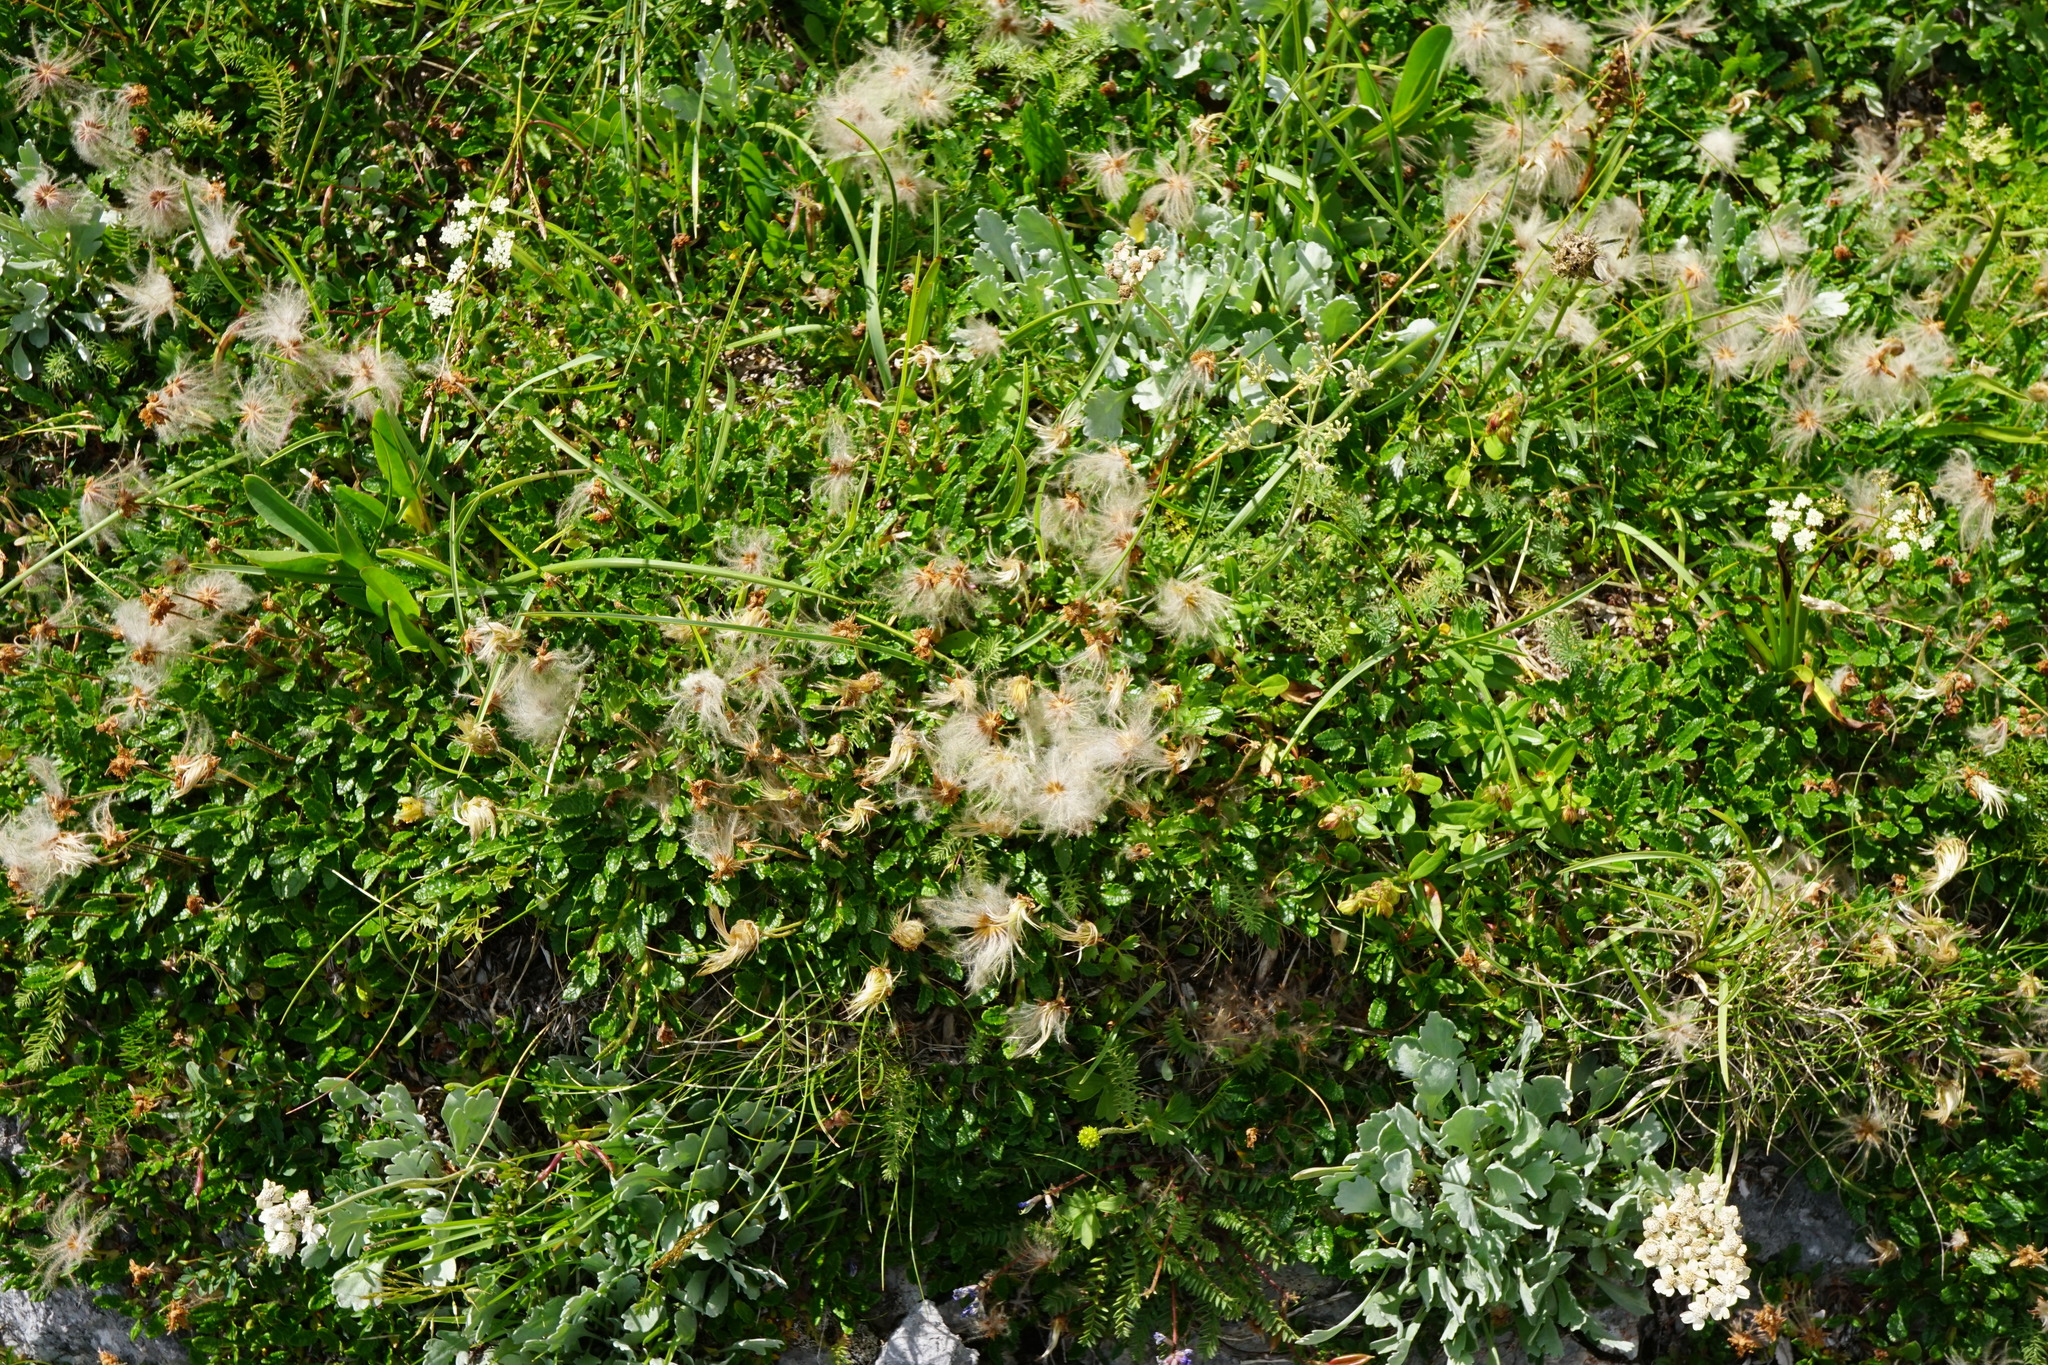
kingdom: Plantae
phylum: Tracheophyta
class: Magnoliopsida
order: Rosales
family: Rosaceae
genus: Dryas
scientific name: Dryas octopetala
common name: Eight-petal mountain-avens
